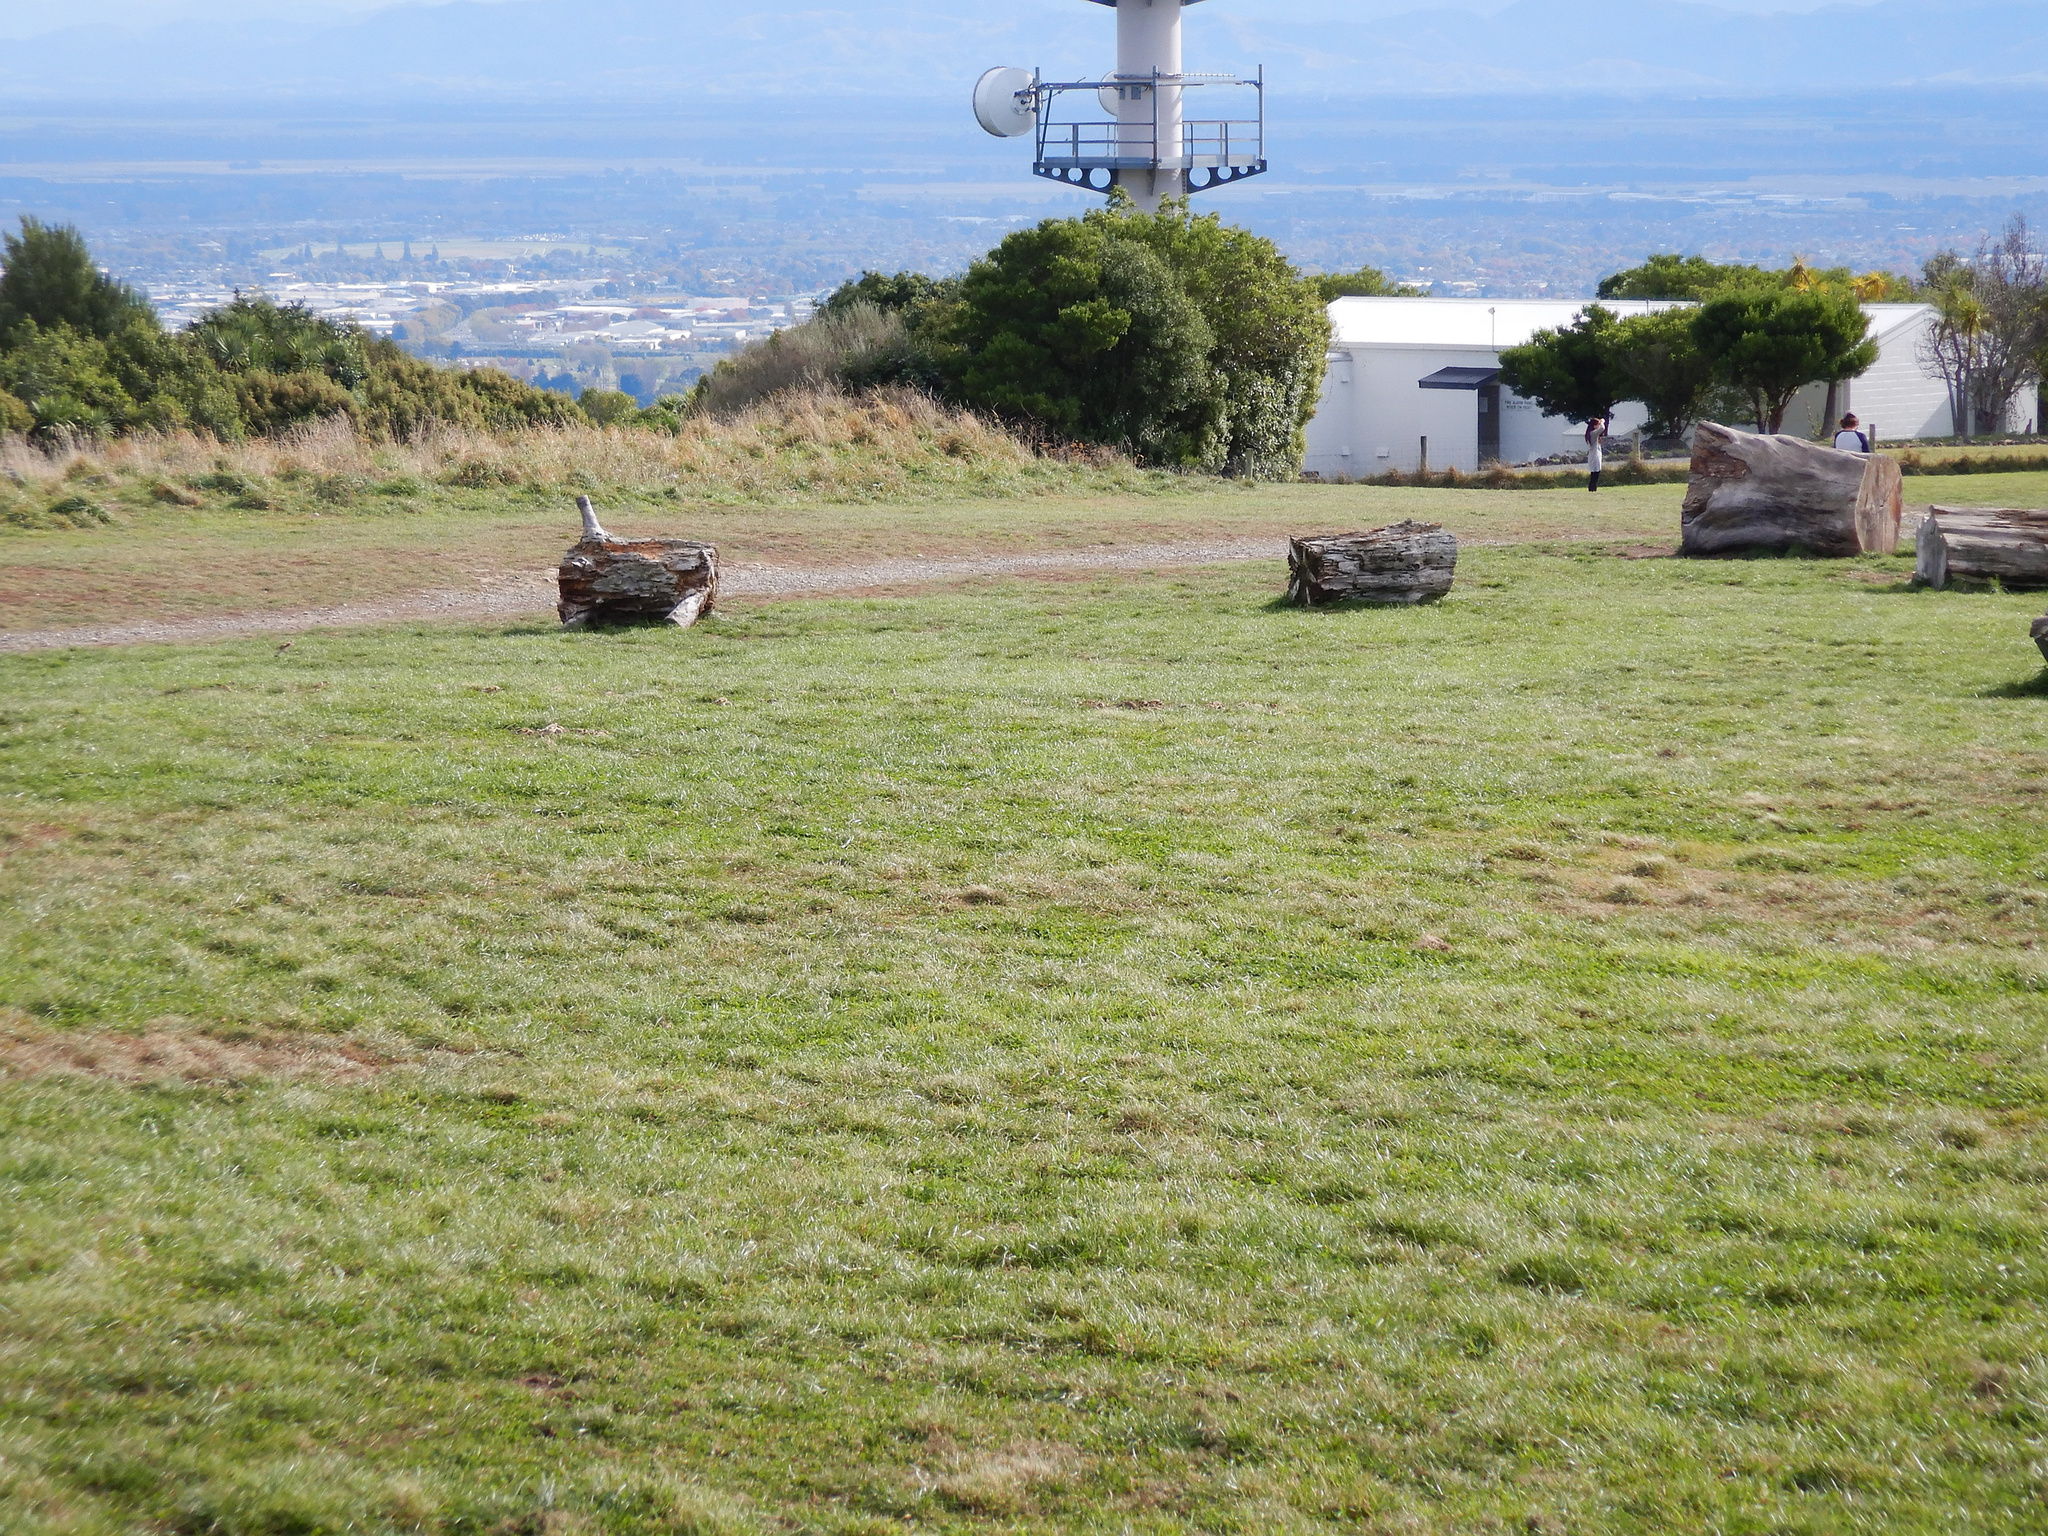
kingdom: Animalia
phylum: Chordata
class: Aves
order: Passeriformes
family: Fringillidae
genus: Carduelis
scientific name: Carduelis carduelis
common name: European goldfinch
